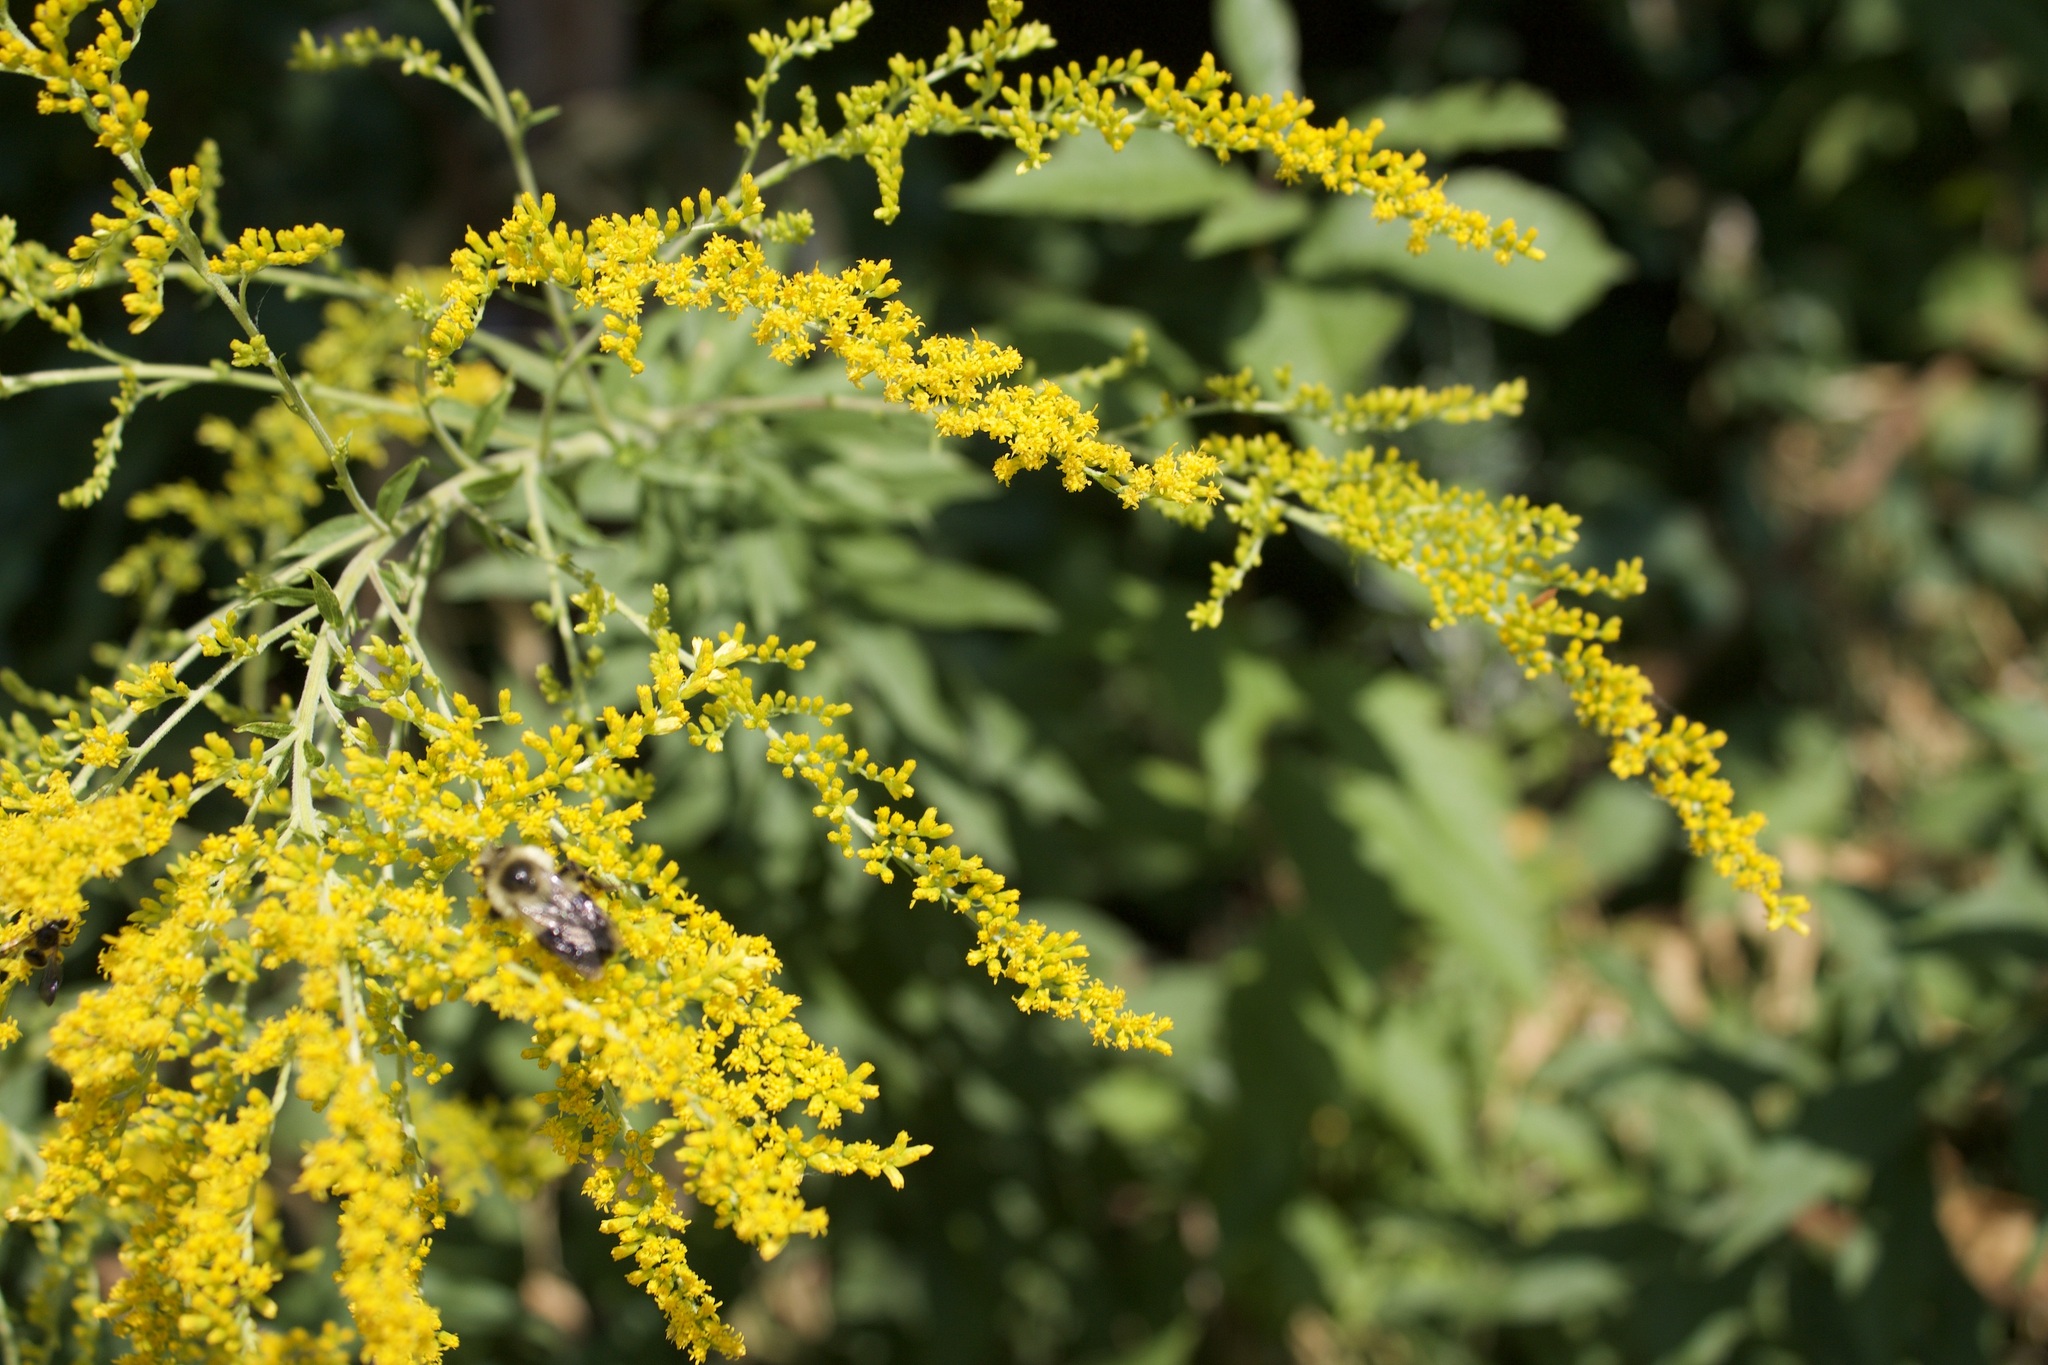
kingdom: Animalia
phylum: Arthropoda
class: Insecta
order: Hymenoptera
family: Apidae
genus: Bombus
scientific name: Bombus impatiens
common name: Common eastern bumble bee
